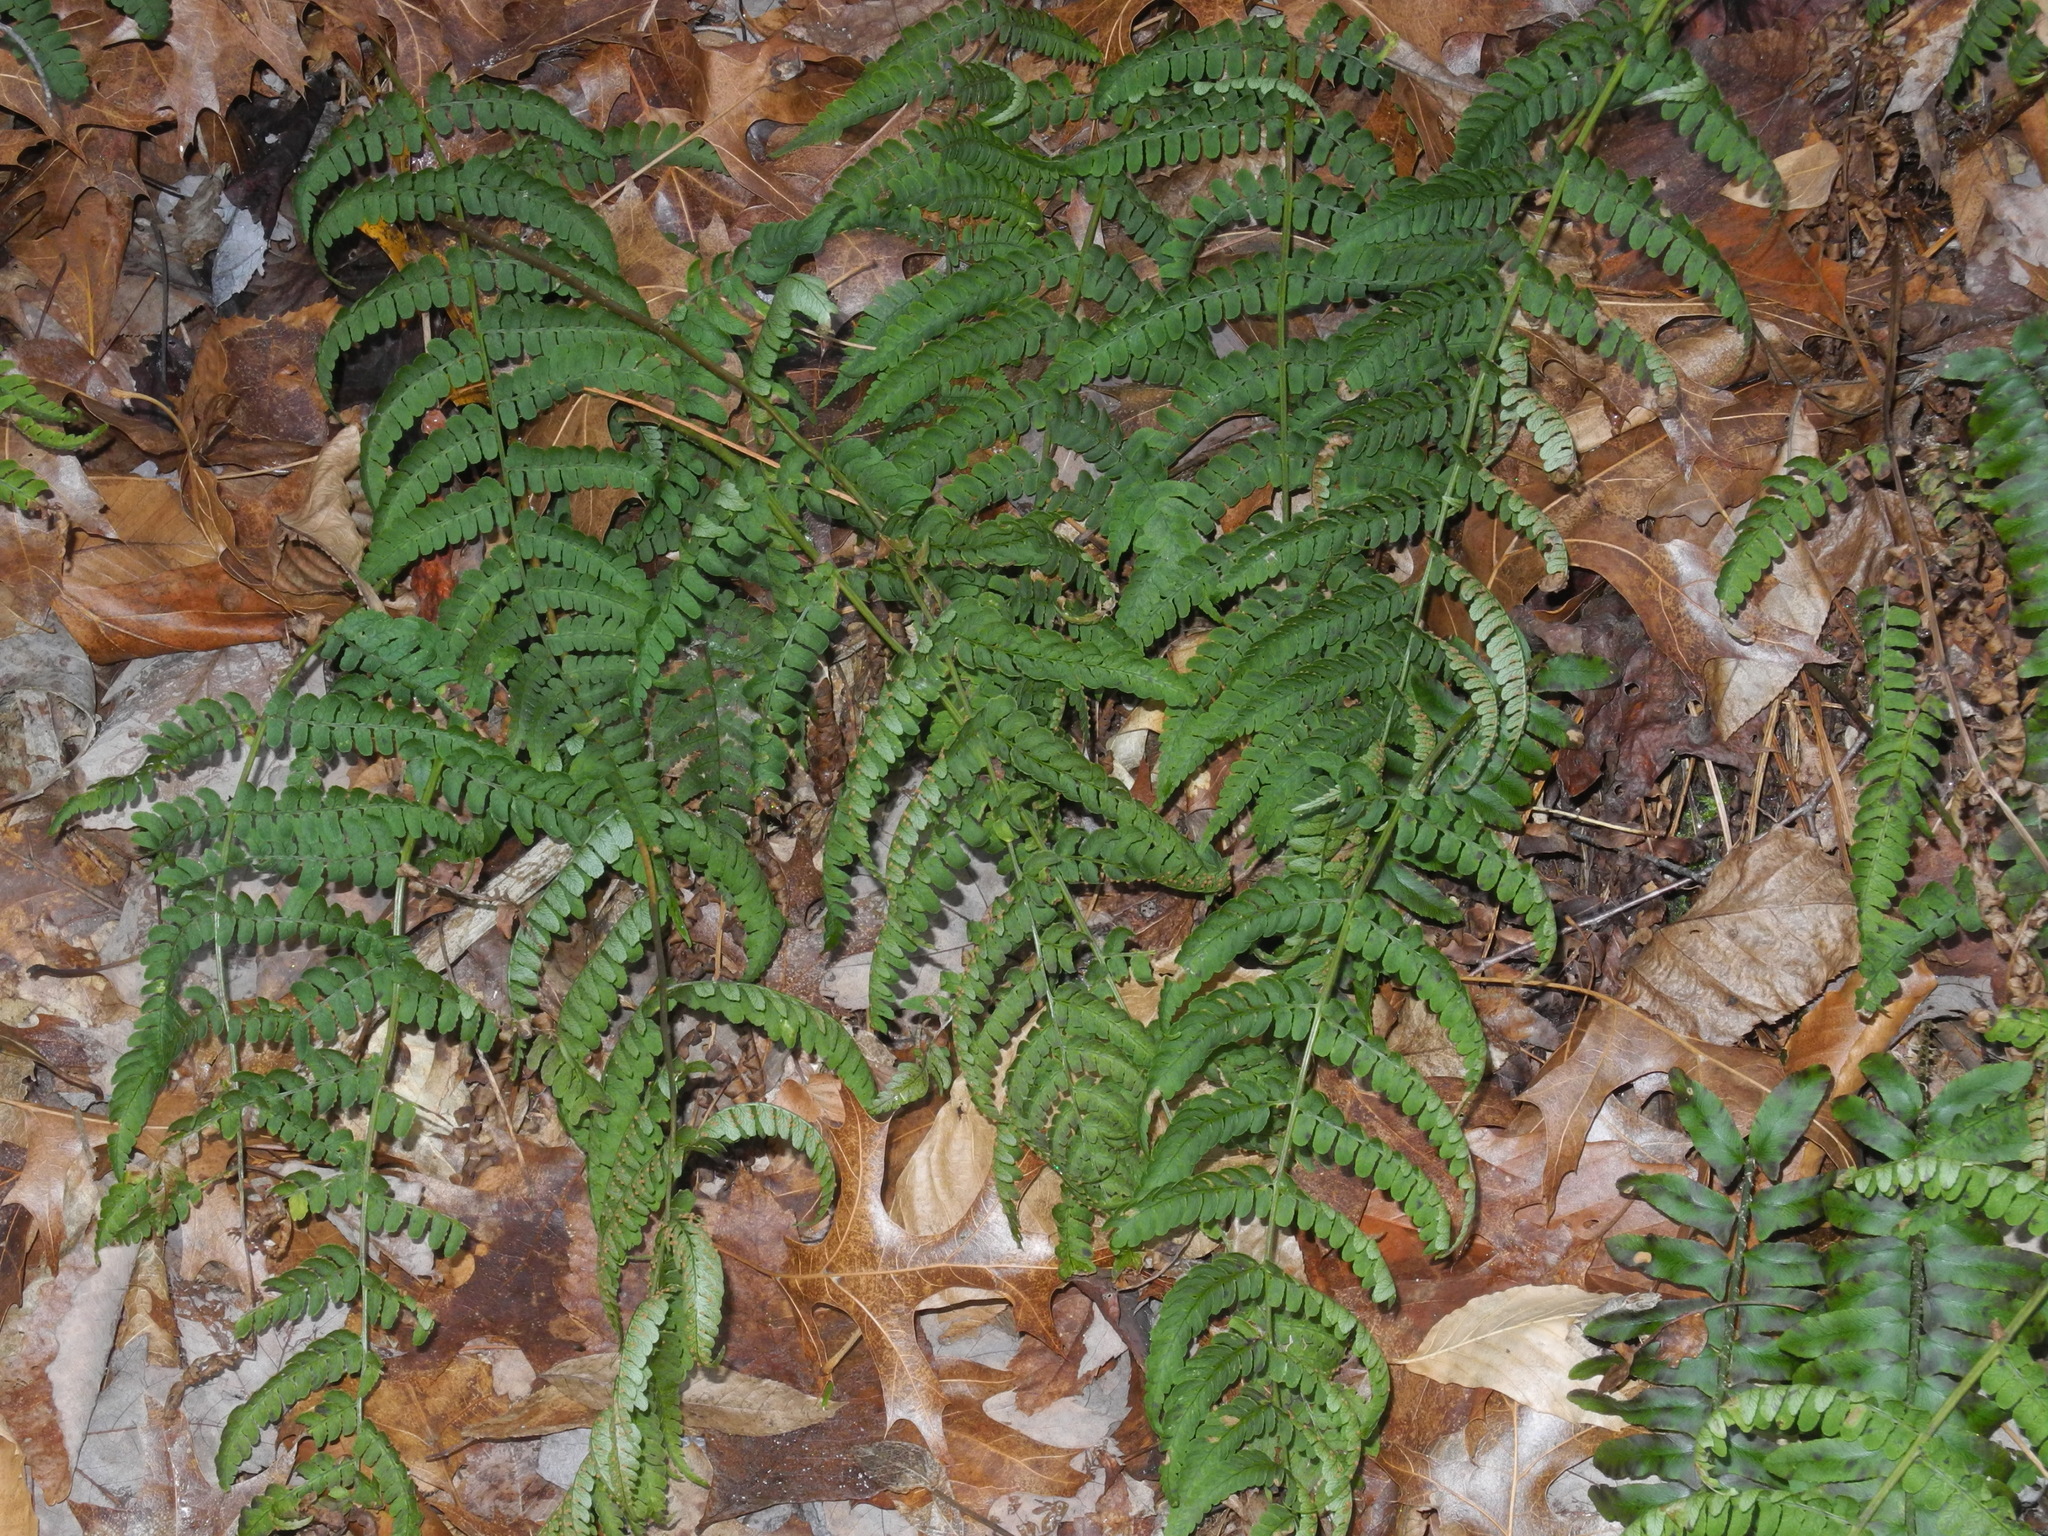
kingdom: Plantae
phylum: Tracheophyta
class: Polypodiopsida
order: Polypodiales
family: Dryopteridaceae
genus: Dryopteris
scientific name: Dryopteris marginalis
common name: Marginal wood fern
